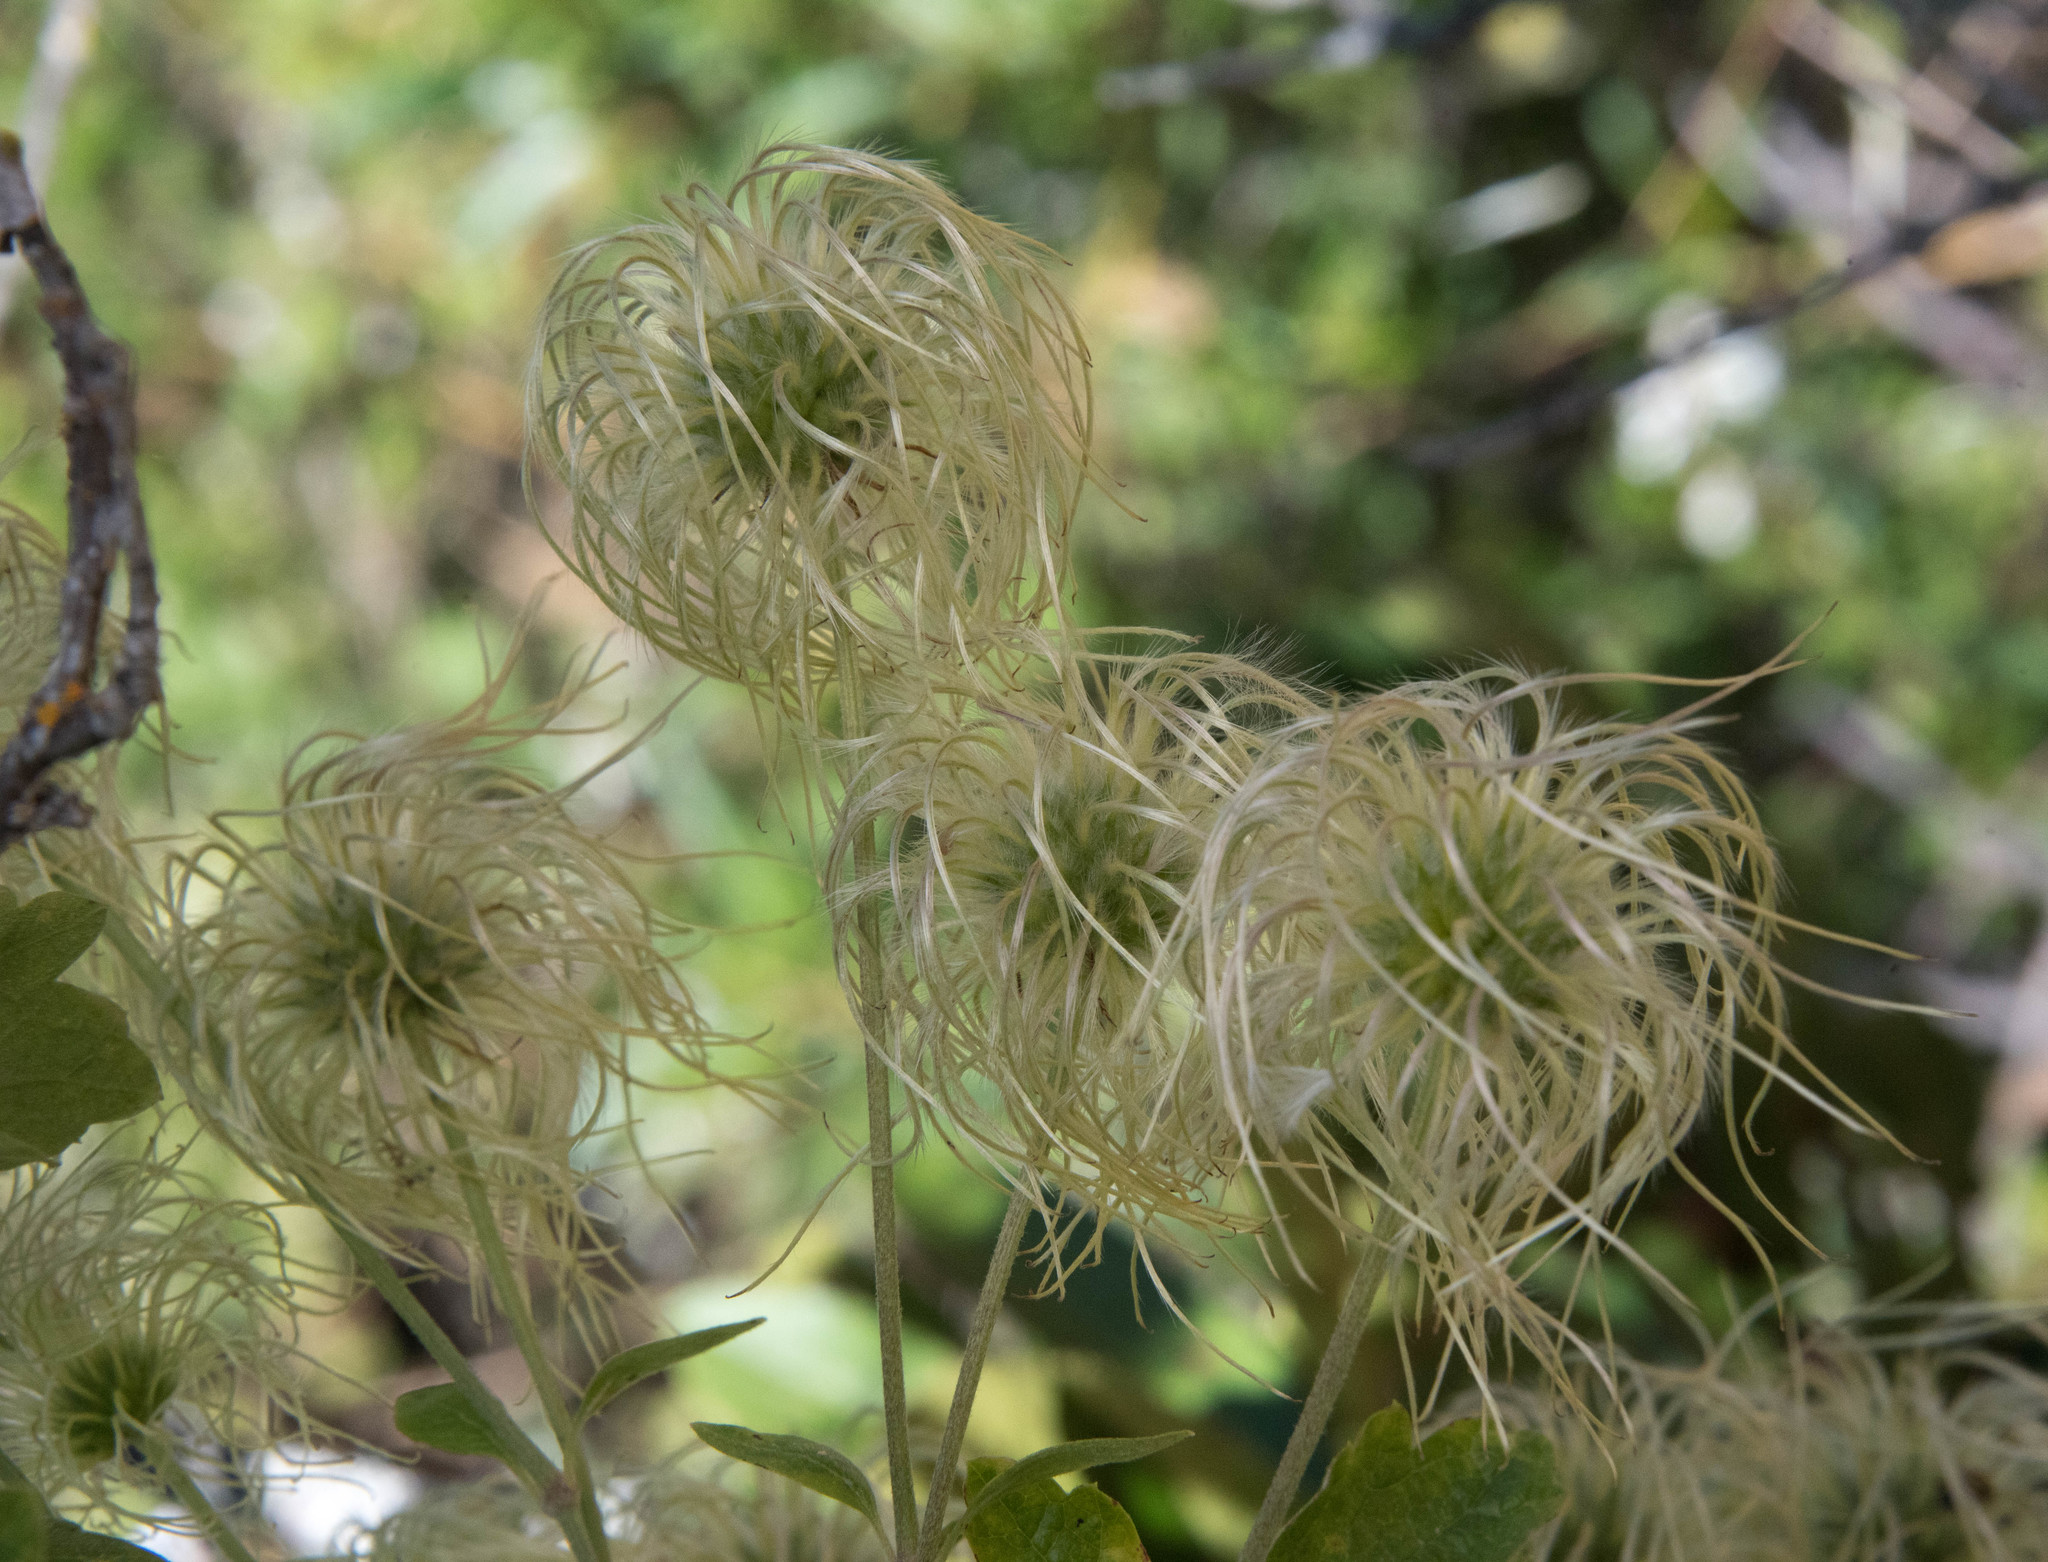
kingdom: Plantae
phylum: Tracheophyta
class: Magnoliopsida
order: Ranunculales
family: Ranunculaceae
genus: Clematis
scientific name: Clematis lasiantha
